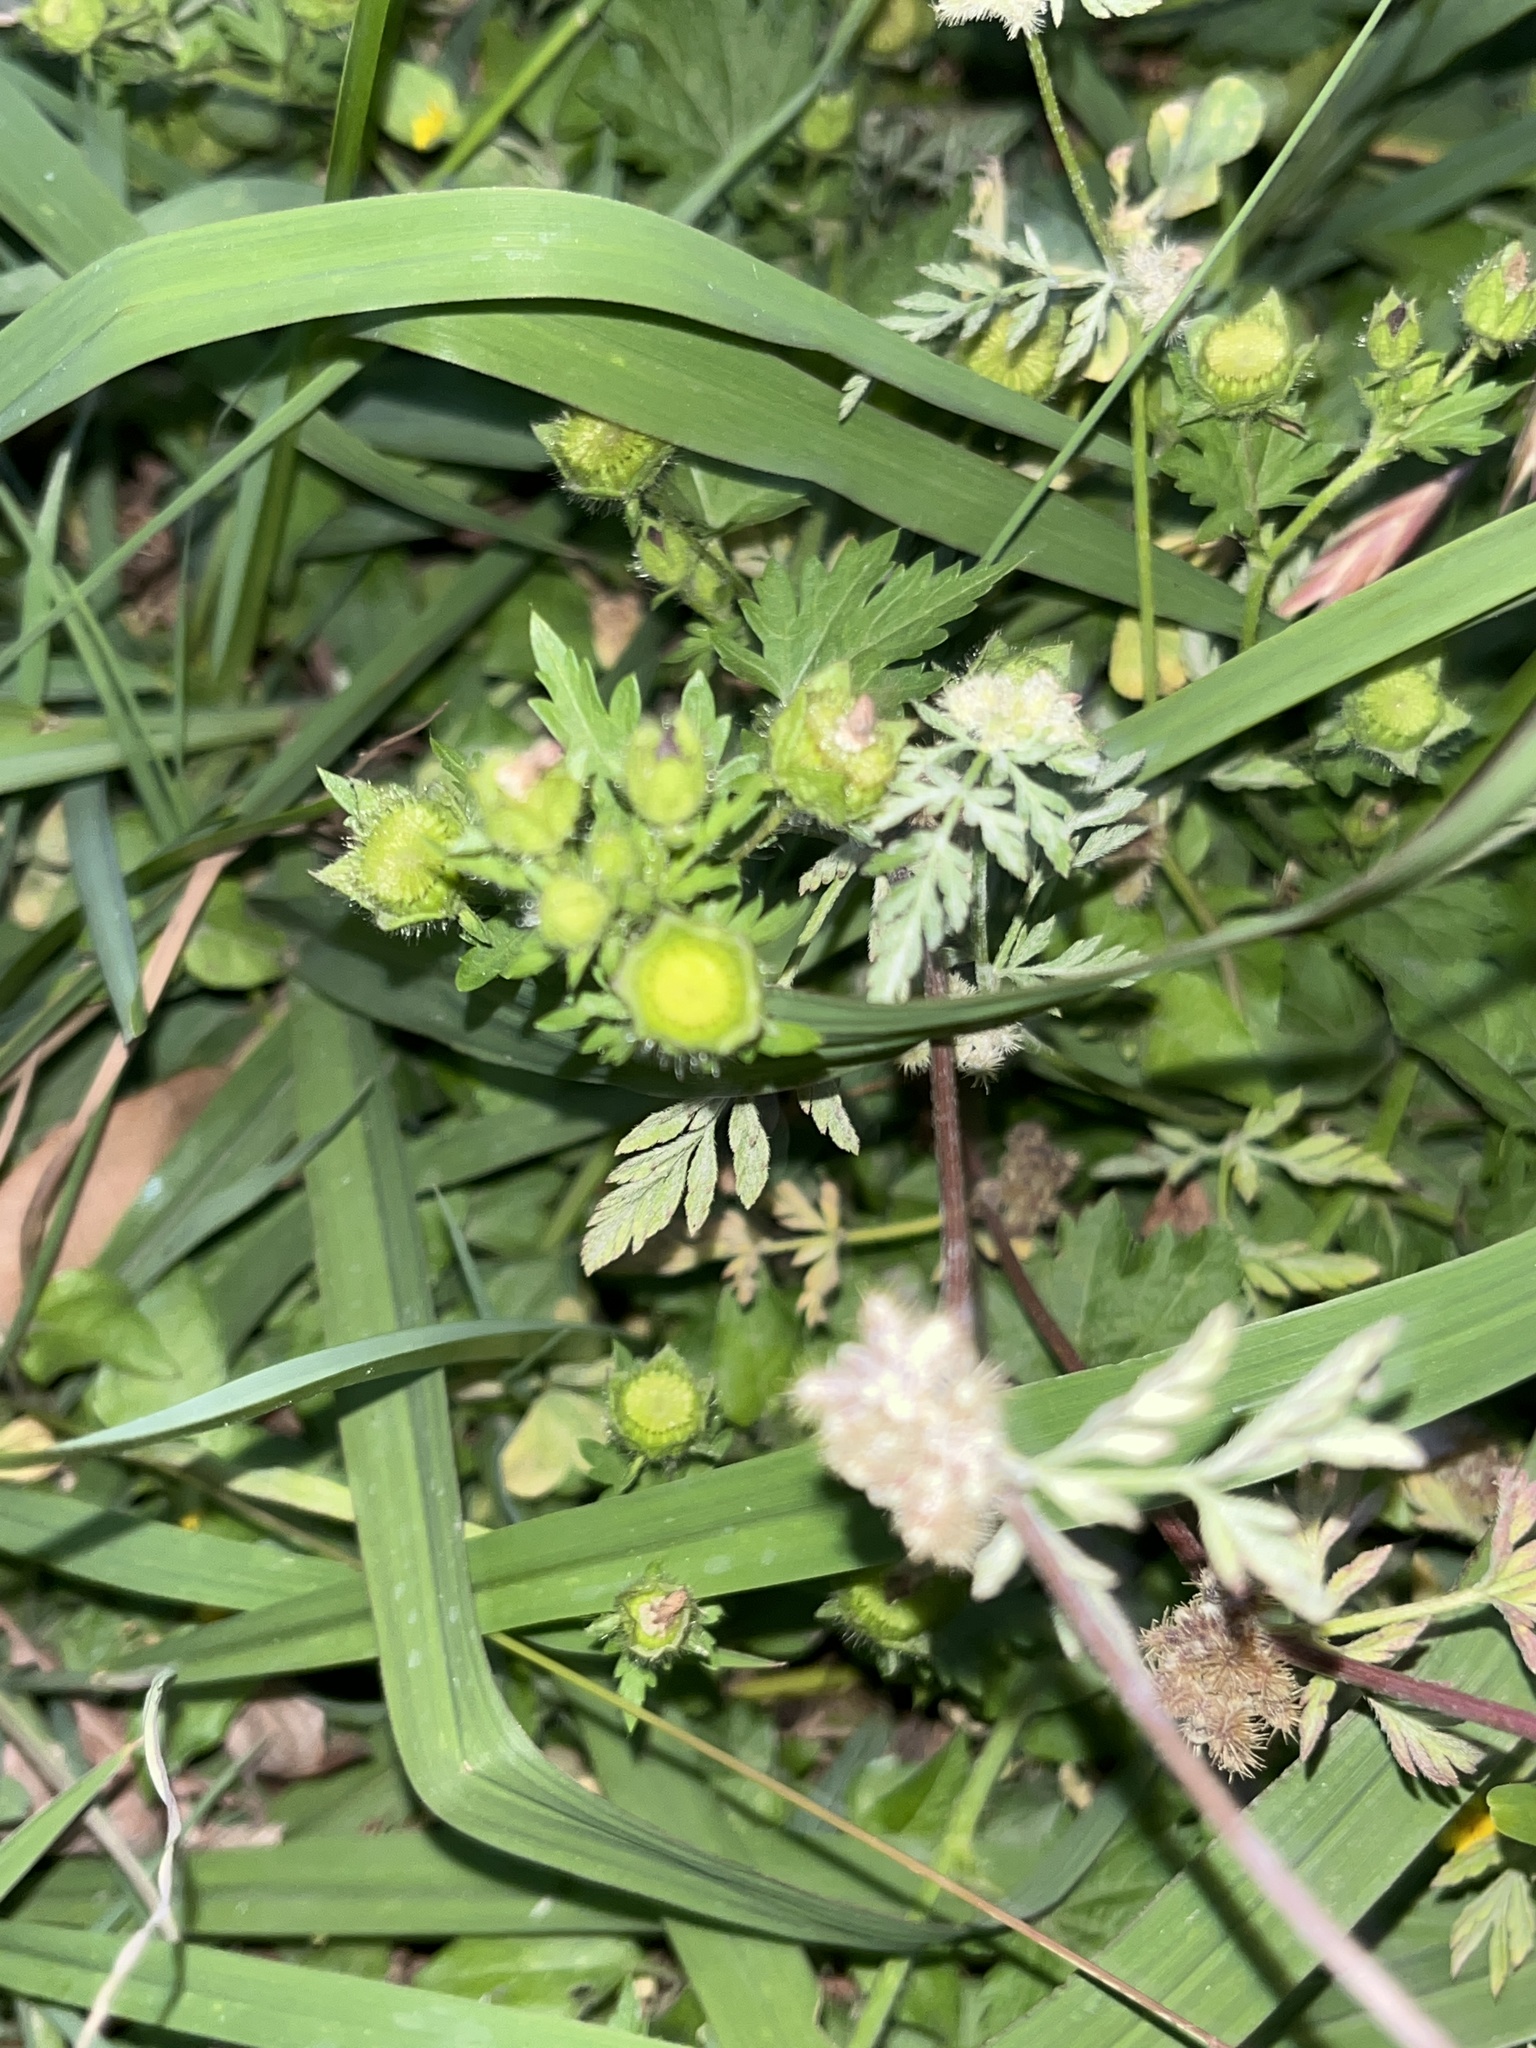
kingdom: Plantae
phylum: Tracheophyta
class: Magnoliopsida
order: Malvales
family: Malvaceae
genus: Modiola
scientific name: Modiola caroliniana
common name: Carolina bristlemallow
